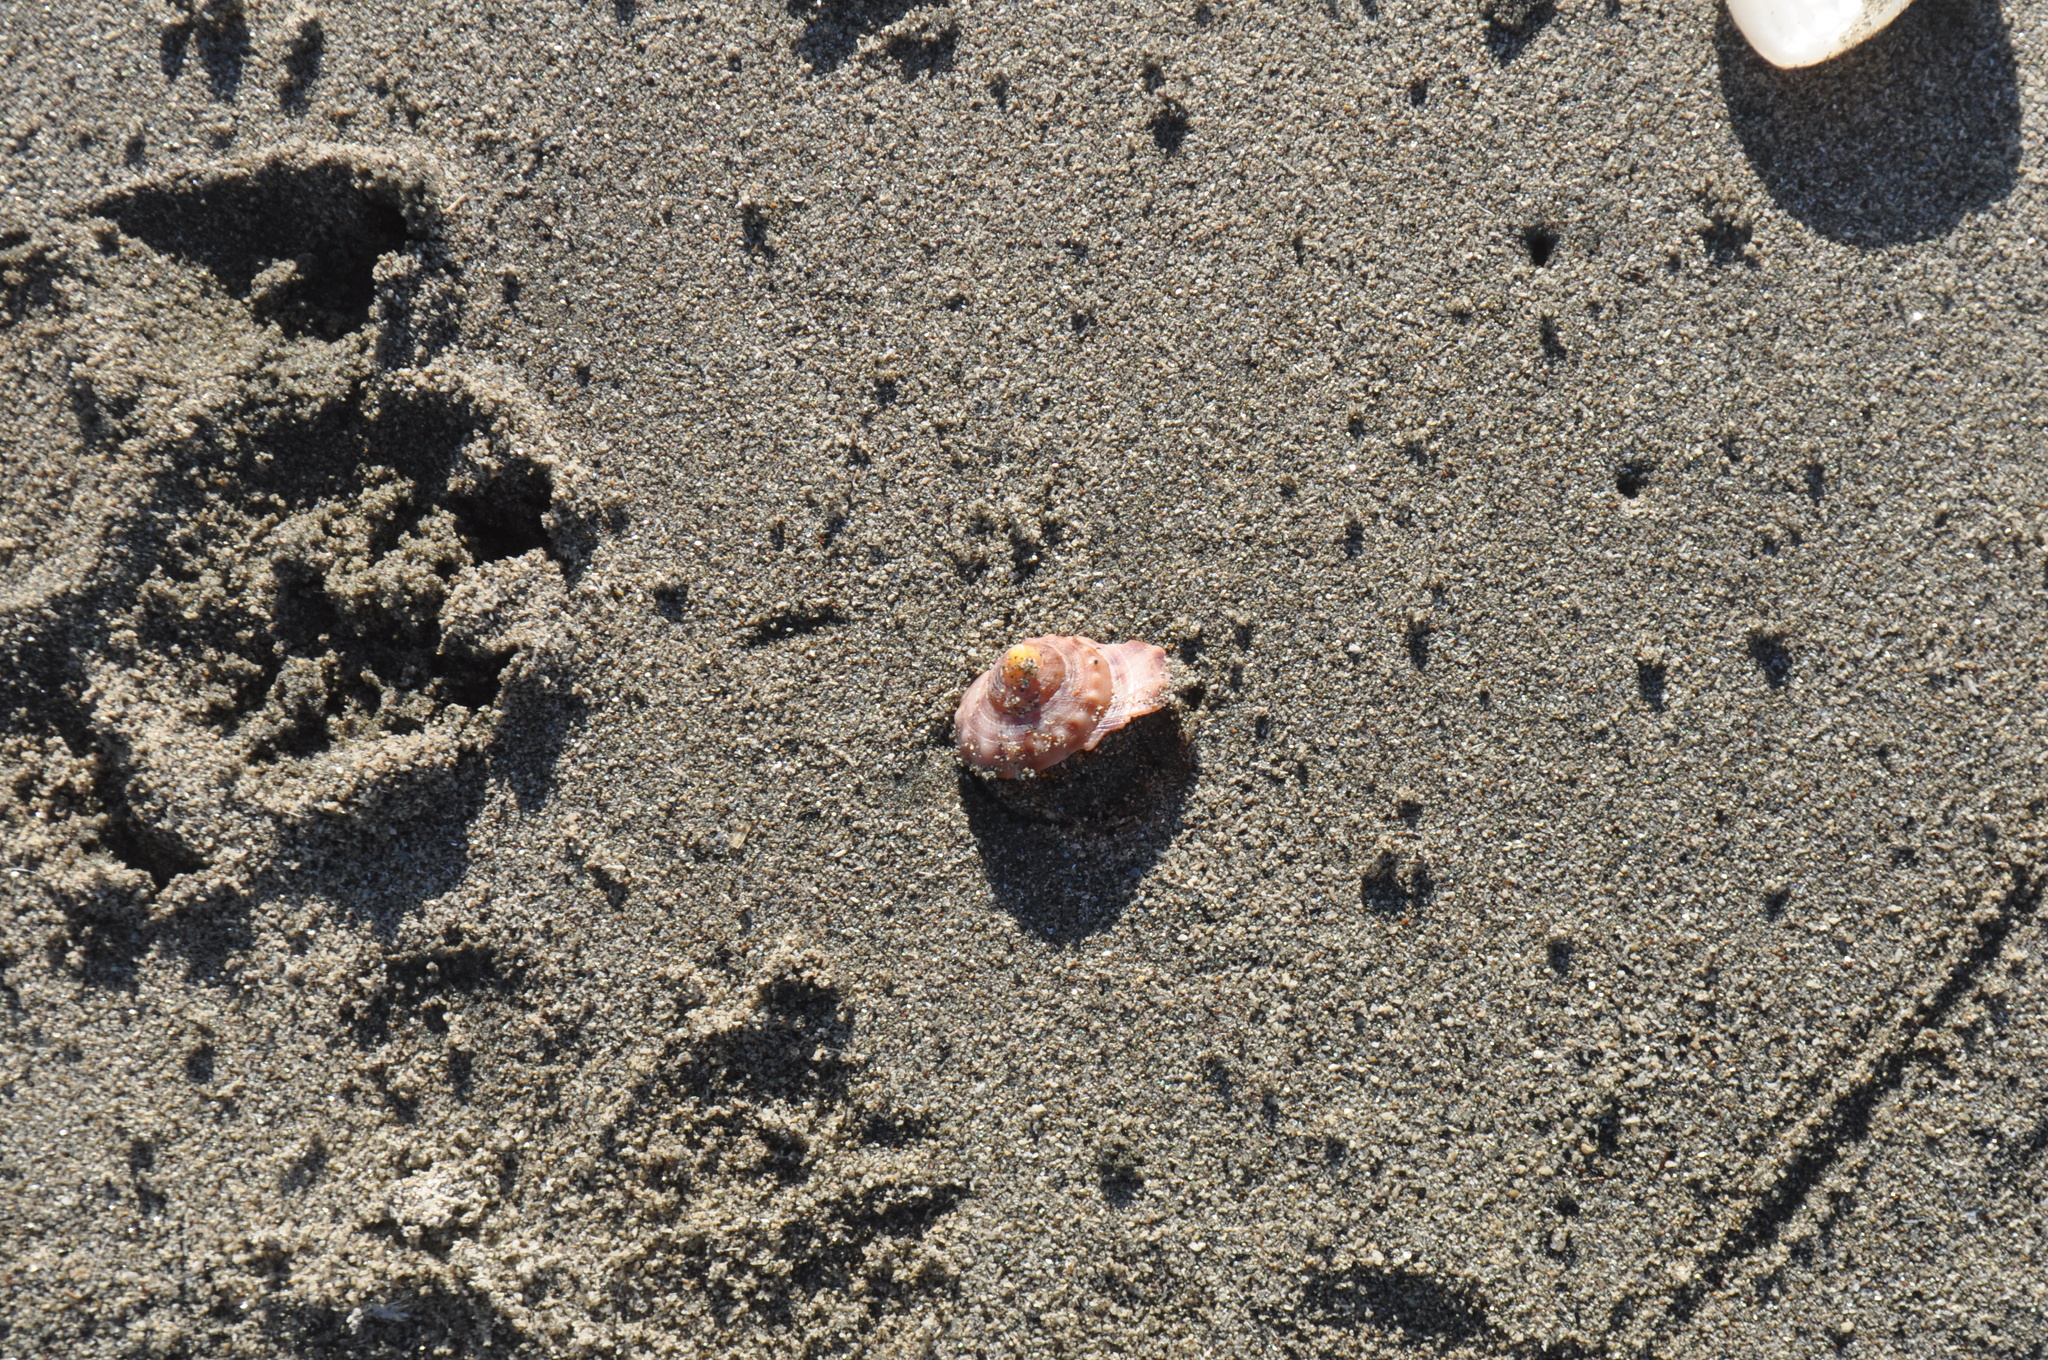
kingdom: Animalia
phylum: Mollusca
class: Gastropoda
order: Littorinimorpha
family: Cassidae
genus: Semicassis
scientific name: Semicassis pyrum
